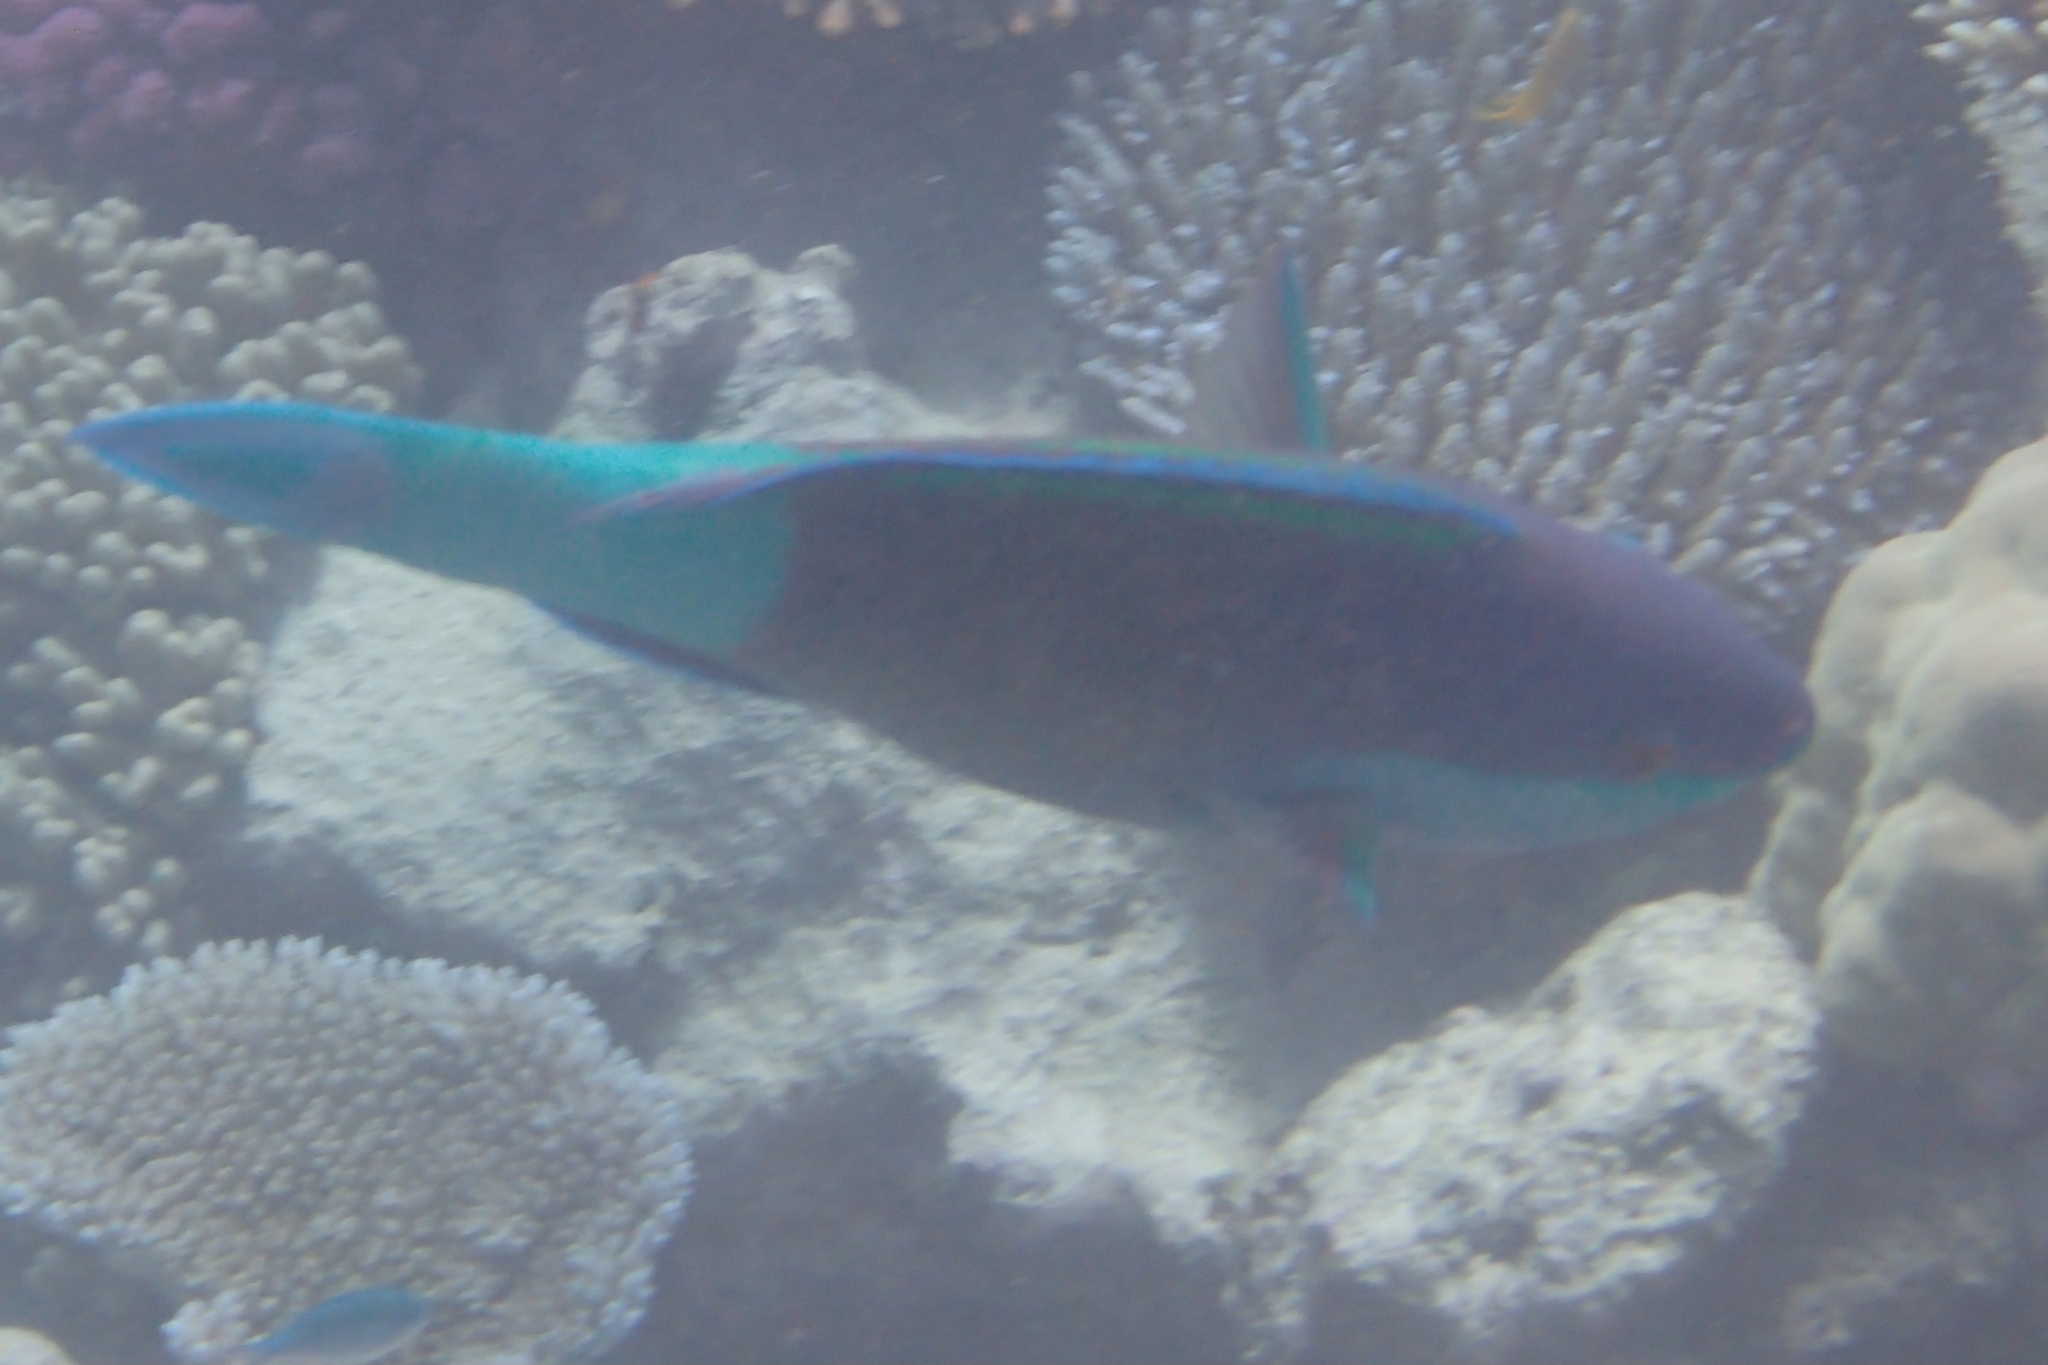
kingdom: Animalia
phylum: Chordata
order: Perciformes
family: Scaridae
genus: Scarus
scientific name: Scarus frenatus
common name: Bridled parrotfish
